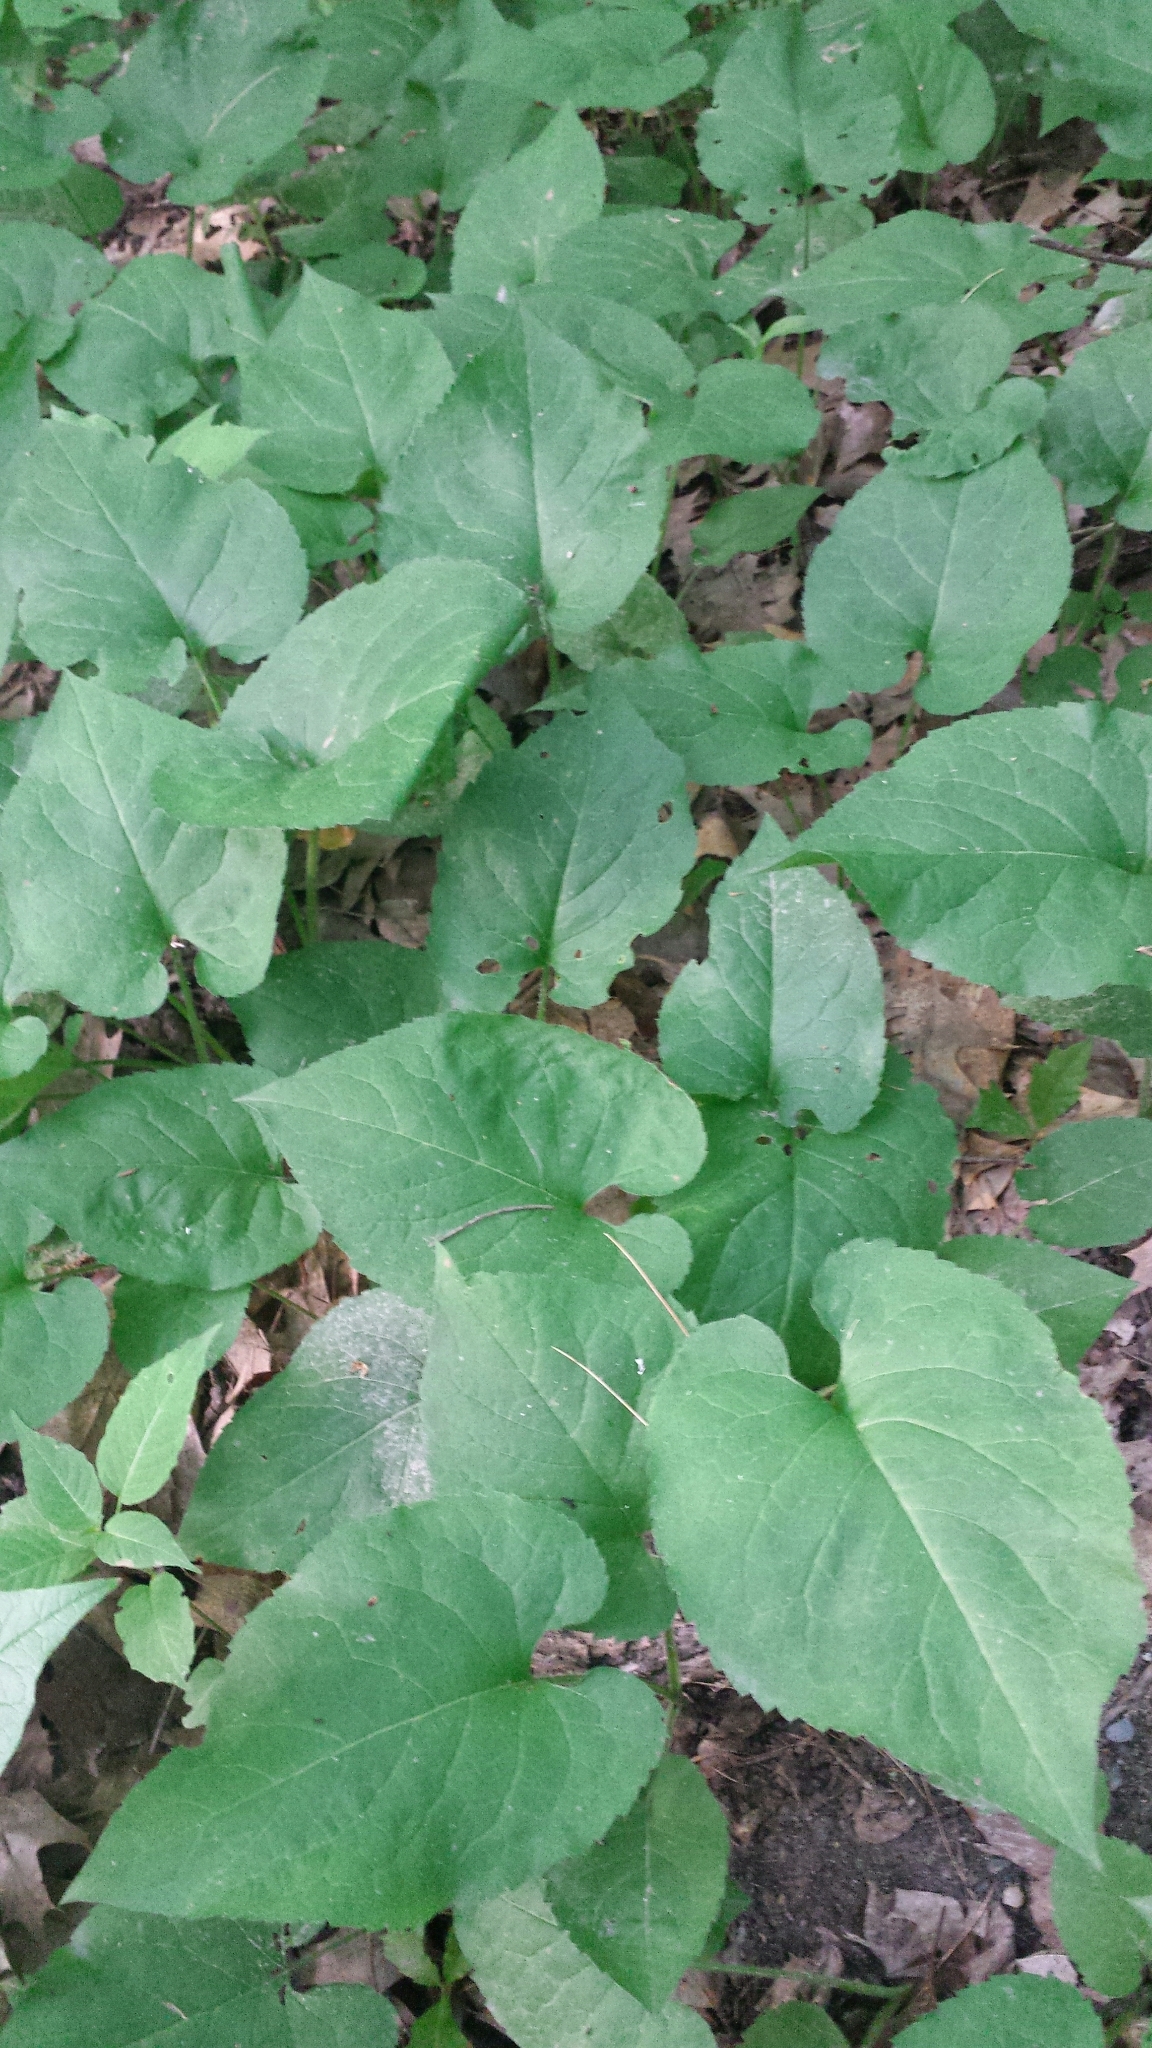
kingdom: Plantae
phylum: Tracheophyta
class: Magnoliopsida
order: Asterales
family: Asteraceae
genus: Eurybia
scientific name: Eurybia macrophylla
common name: Big-leaved aster
